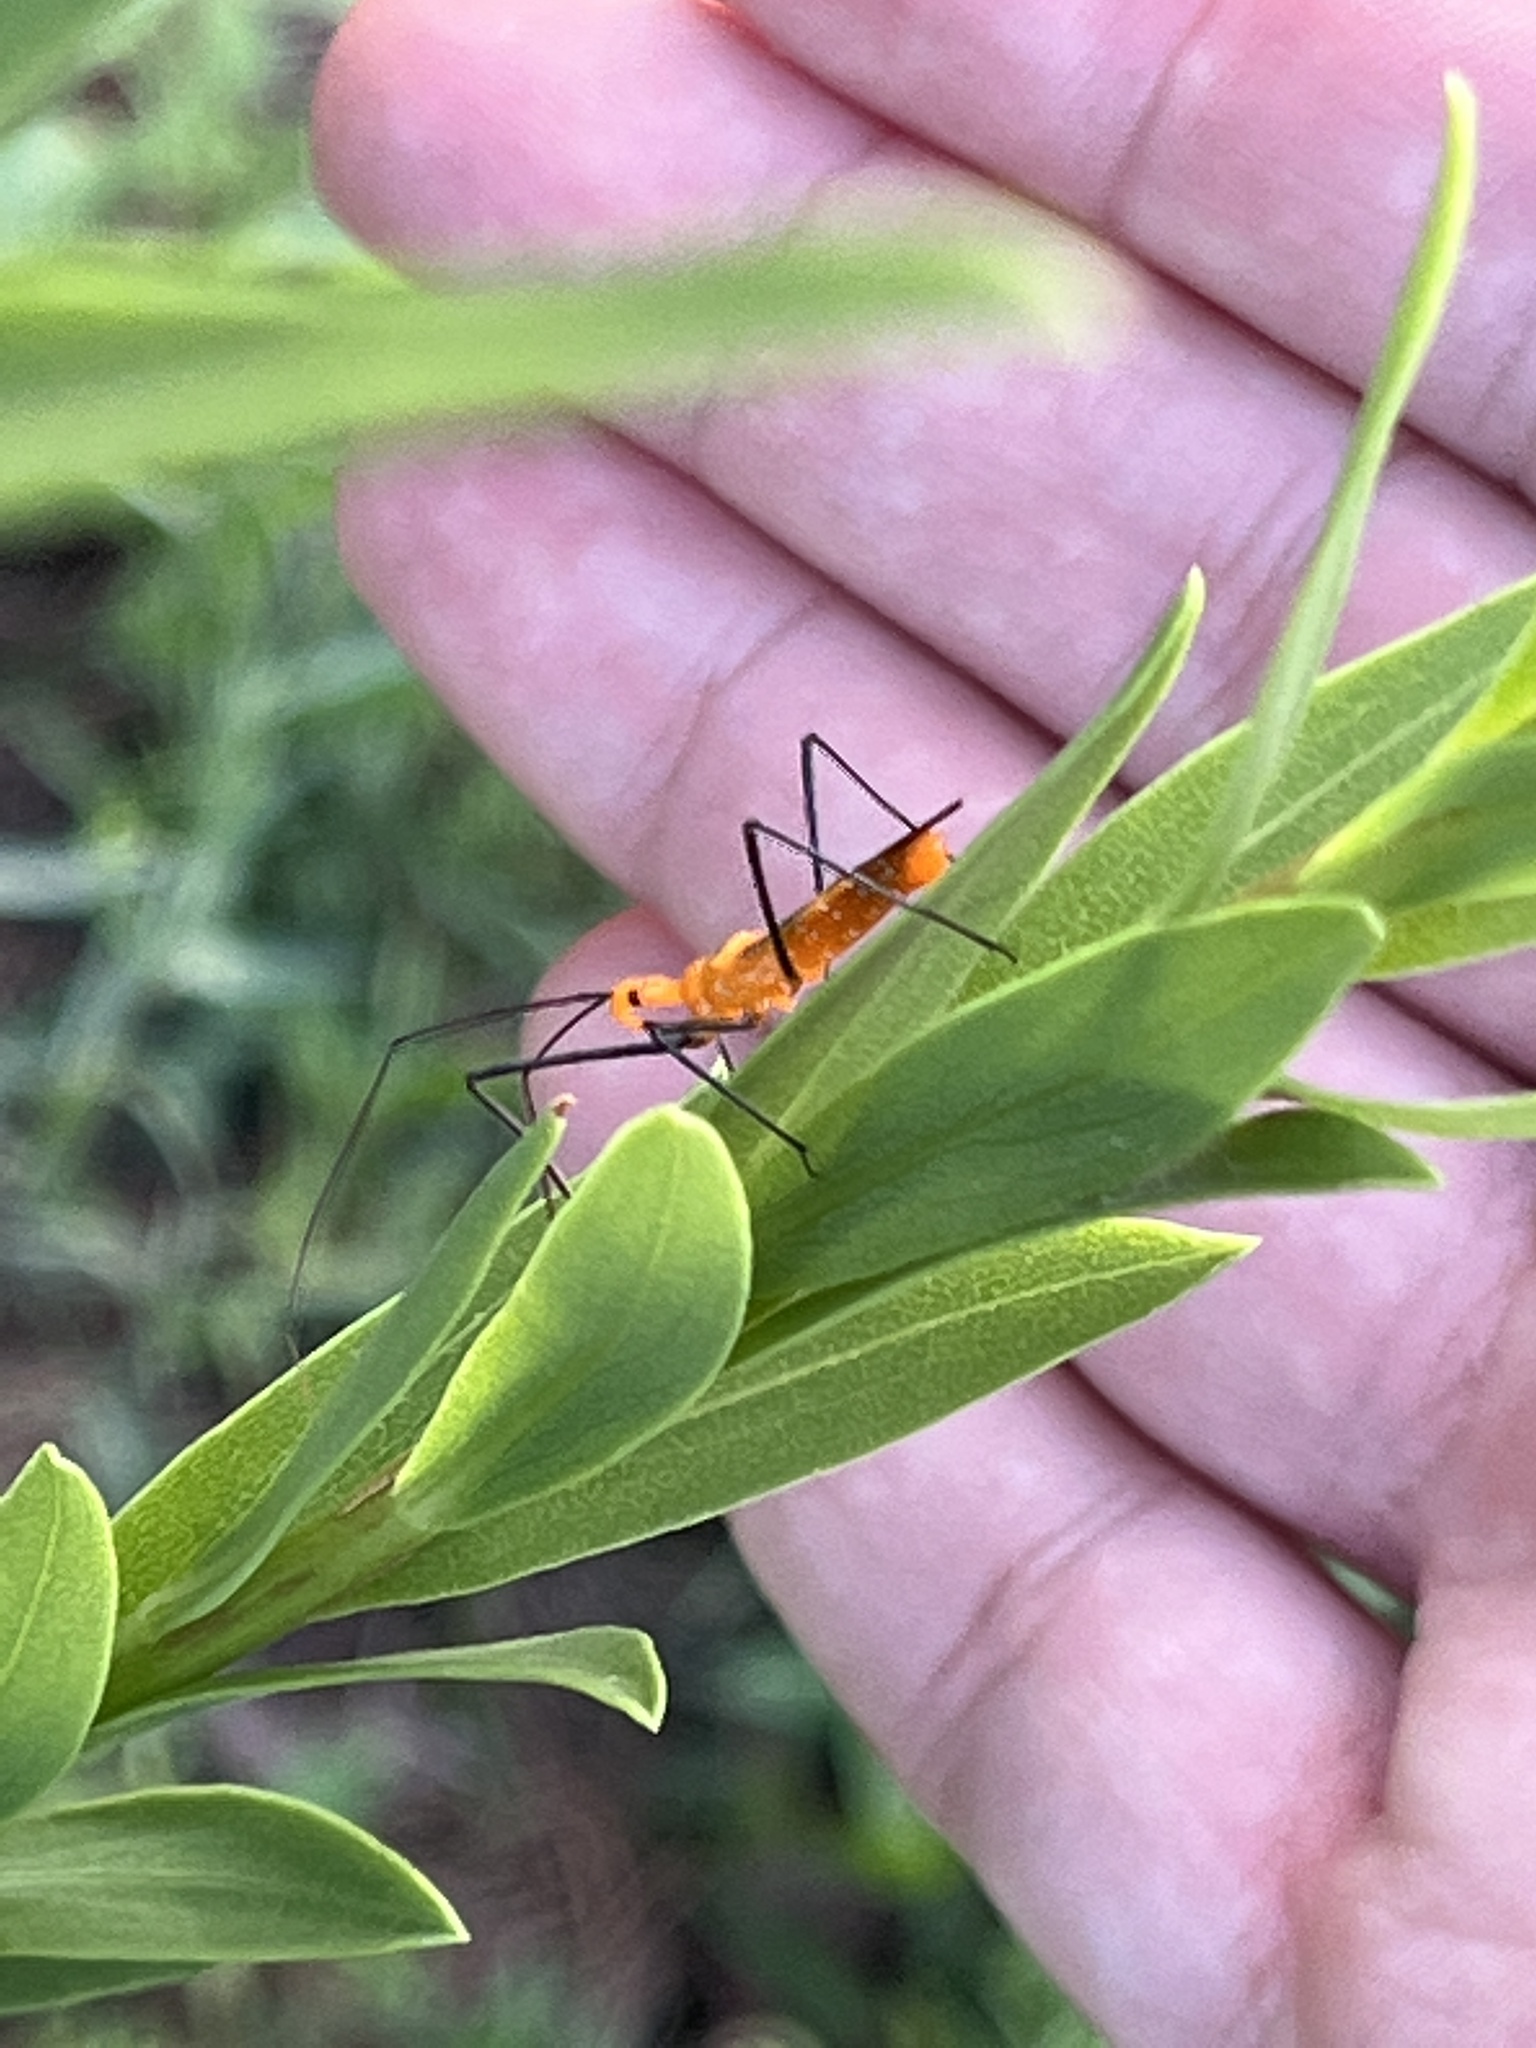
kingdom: Animalia
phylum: Arthropoda
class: Insecta
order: Hemiptera
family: Reduviidae
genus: Zelus
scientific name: Zelus longipes
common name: Milkweed assassin bug
